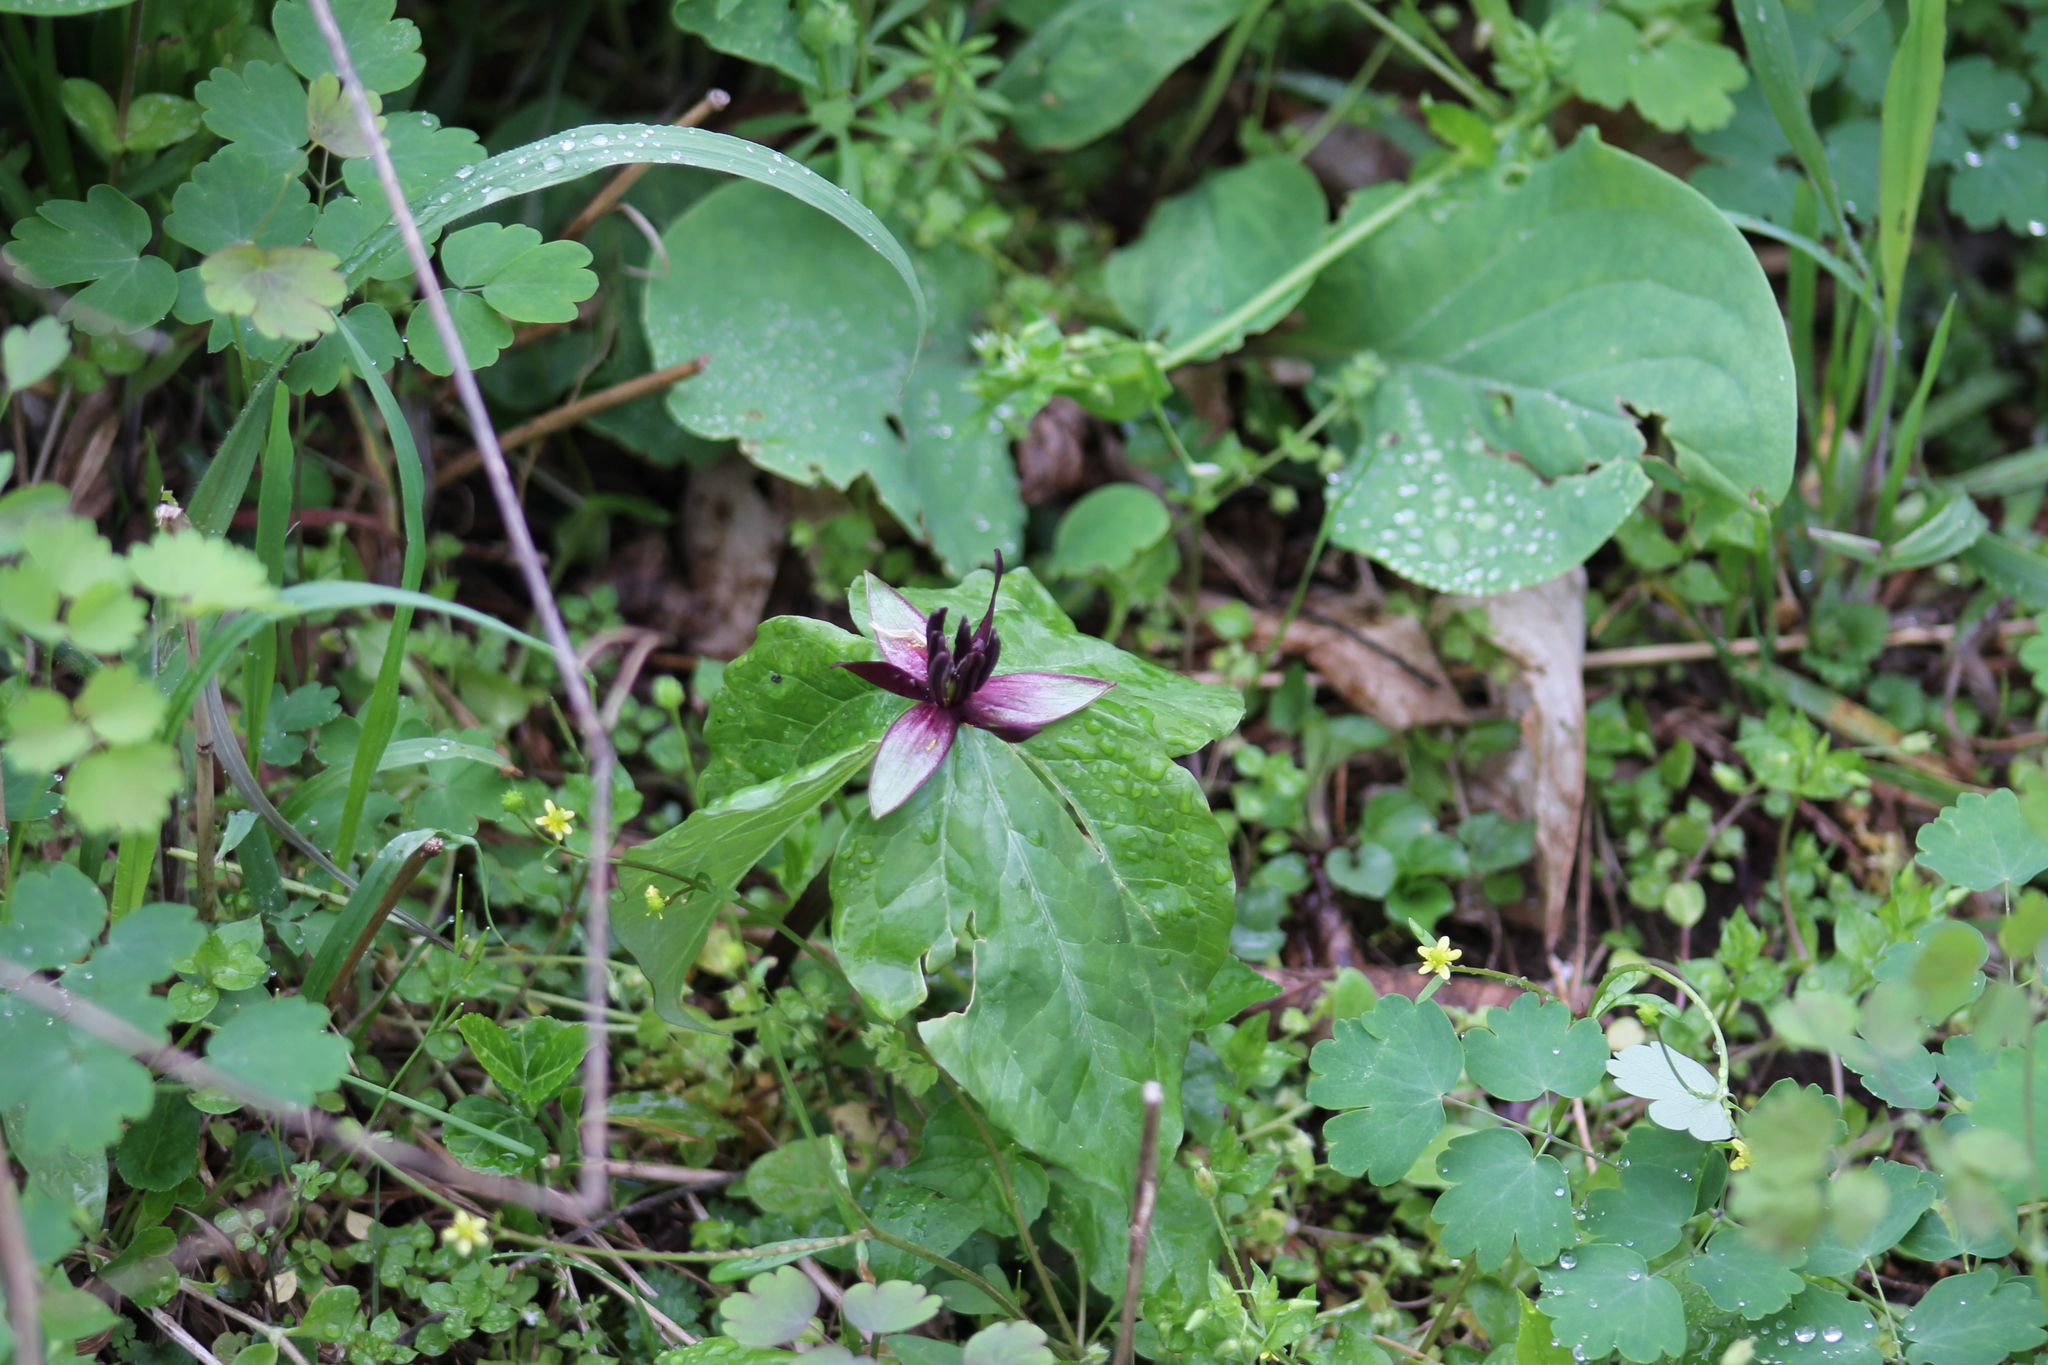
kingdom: Plantae
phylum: Tracheophyta
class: Liliopsida
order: Liliales
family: Melanthiaceae
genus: Trillium
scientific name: Trillium stamineum
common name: Blue ridge wakerobin
